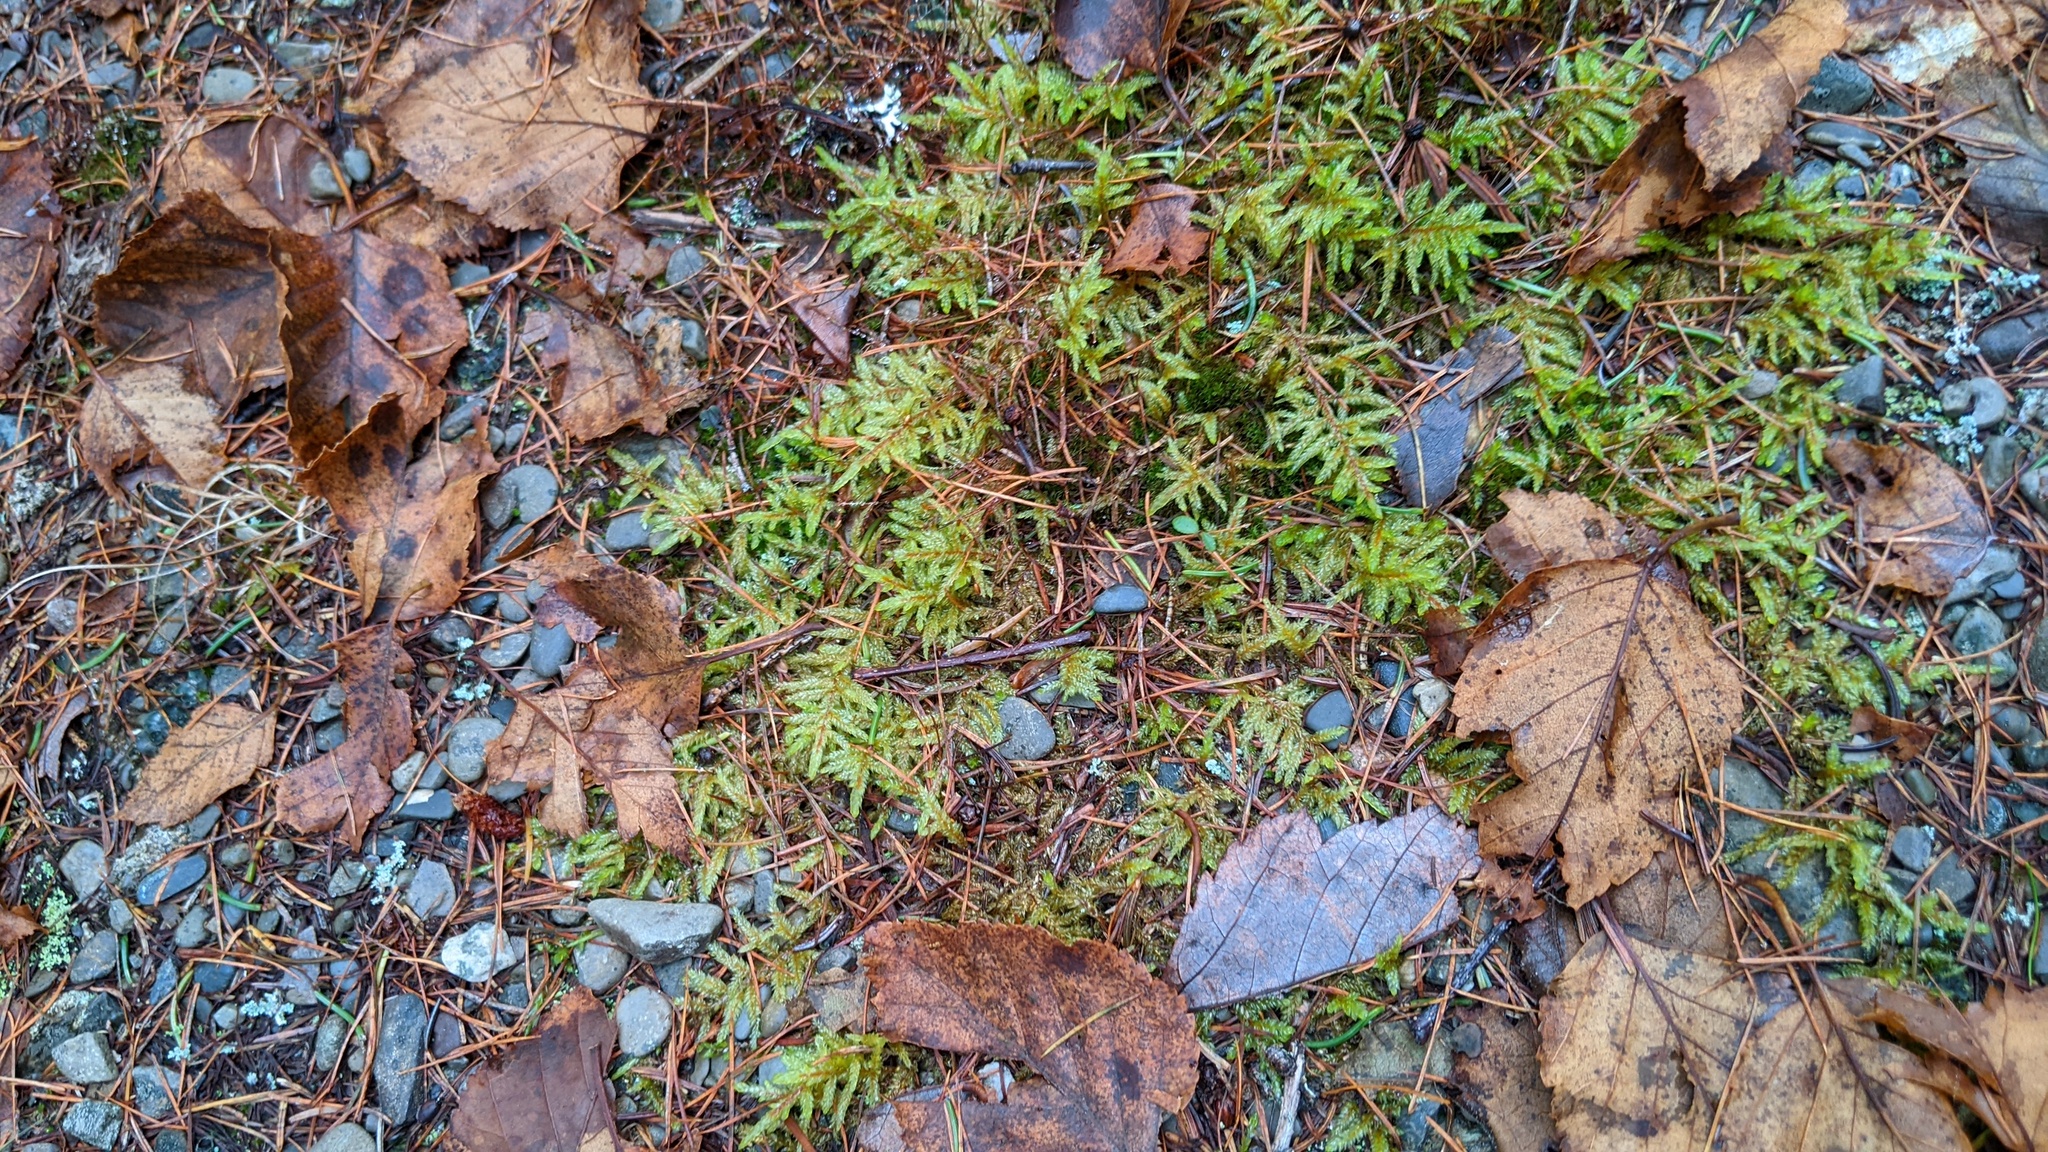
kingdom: Plantae
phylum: Bryophyta
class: Bryopsida
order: Hypnales
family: Hylocomiaceae
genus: Pleurozium
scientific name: Pleurozium schreberi
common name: Red-stemmed feather moss
